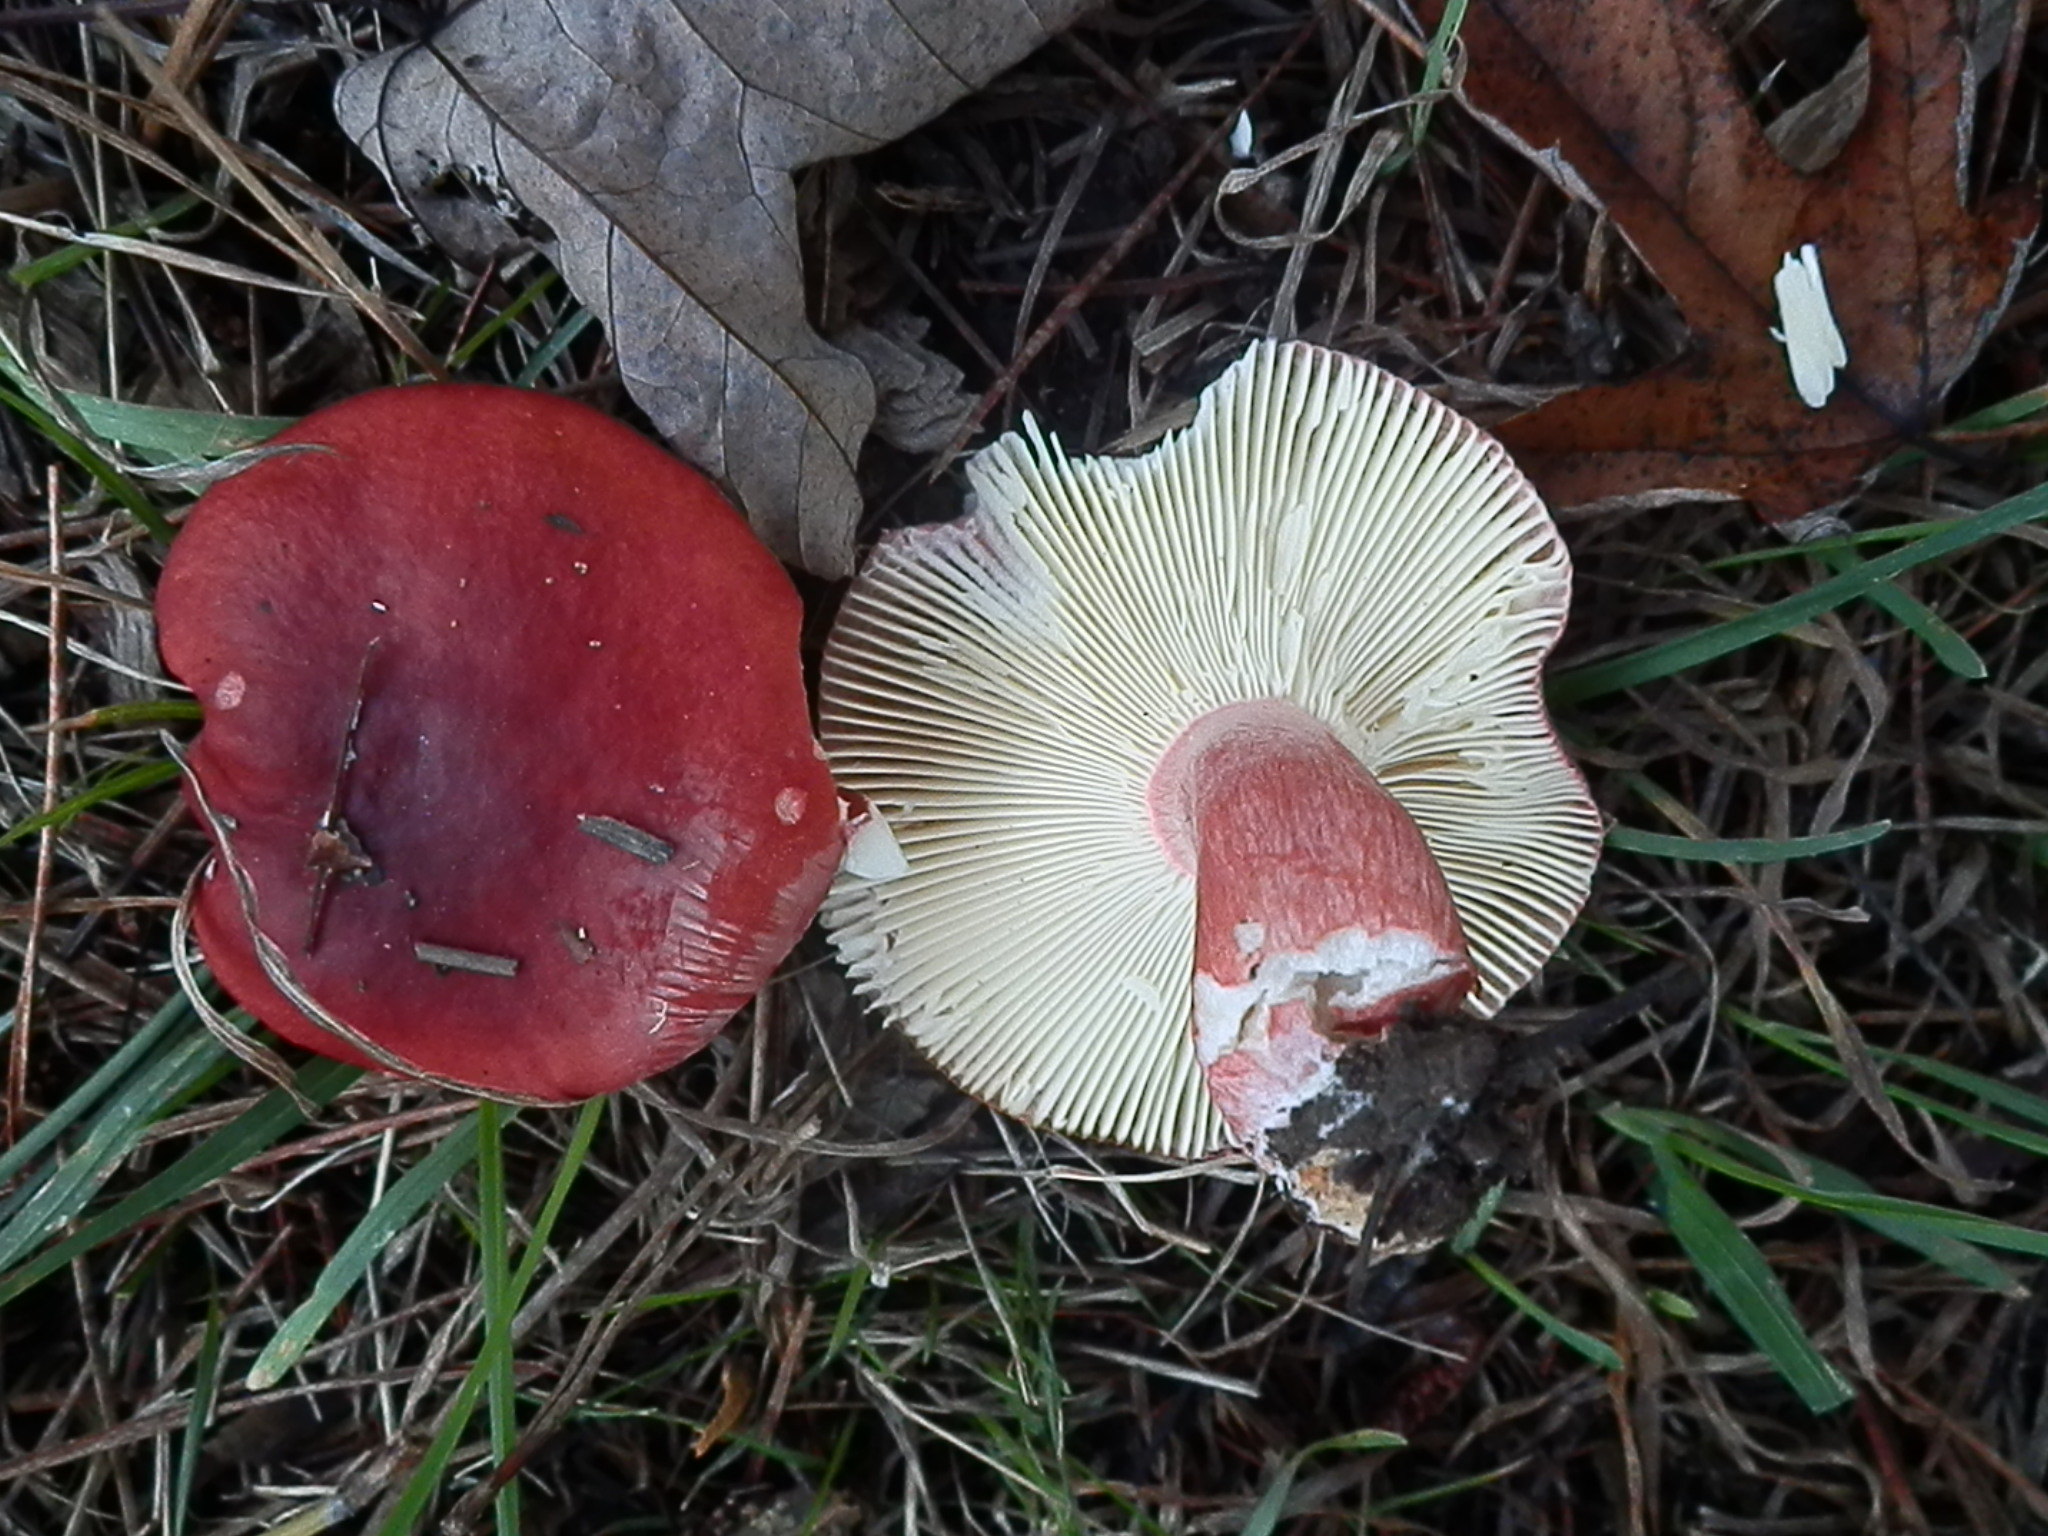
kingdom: Fungi
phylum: Basidiomycota
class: Agaricomycetes
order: Russulales
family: Russulaceae
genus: Russula
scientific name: Russula sanguinea
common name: Bloody brittlegill
